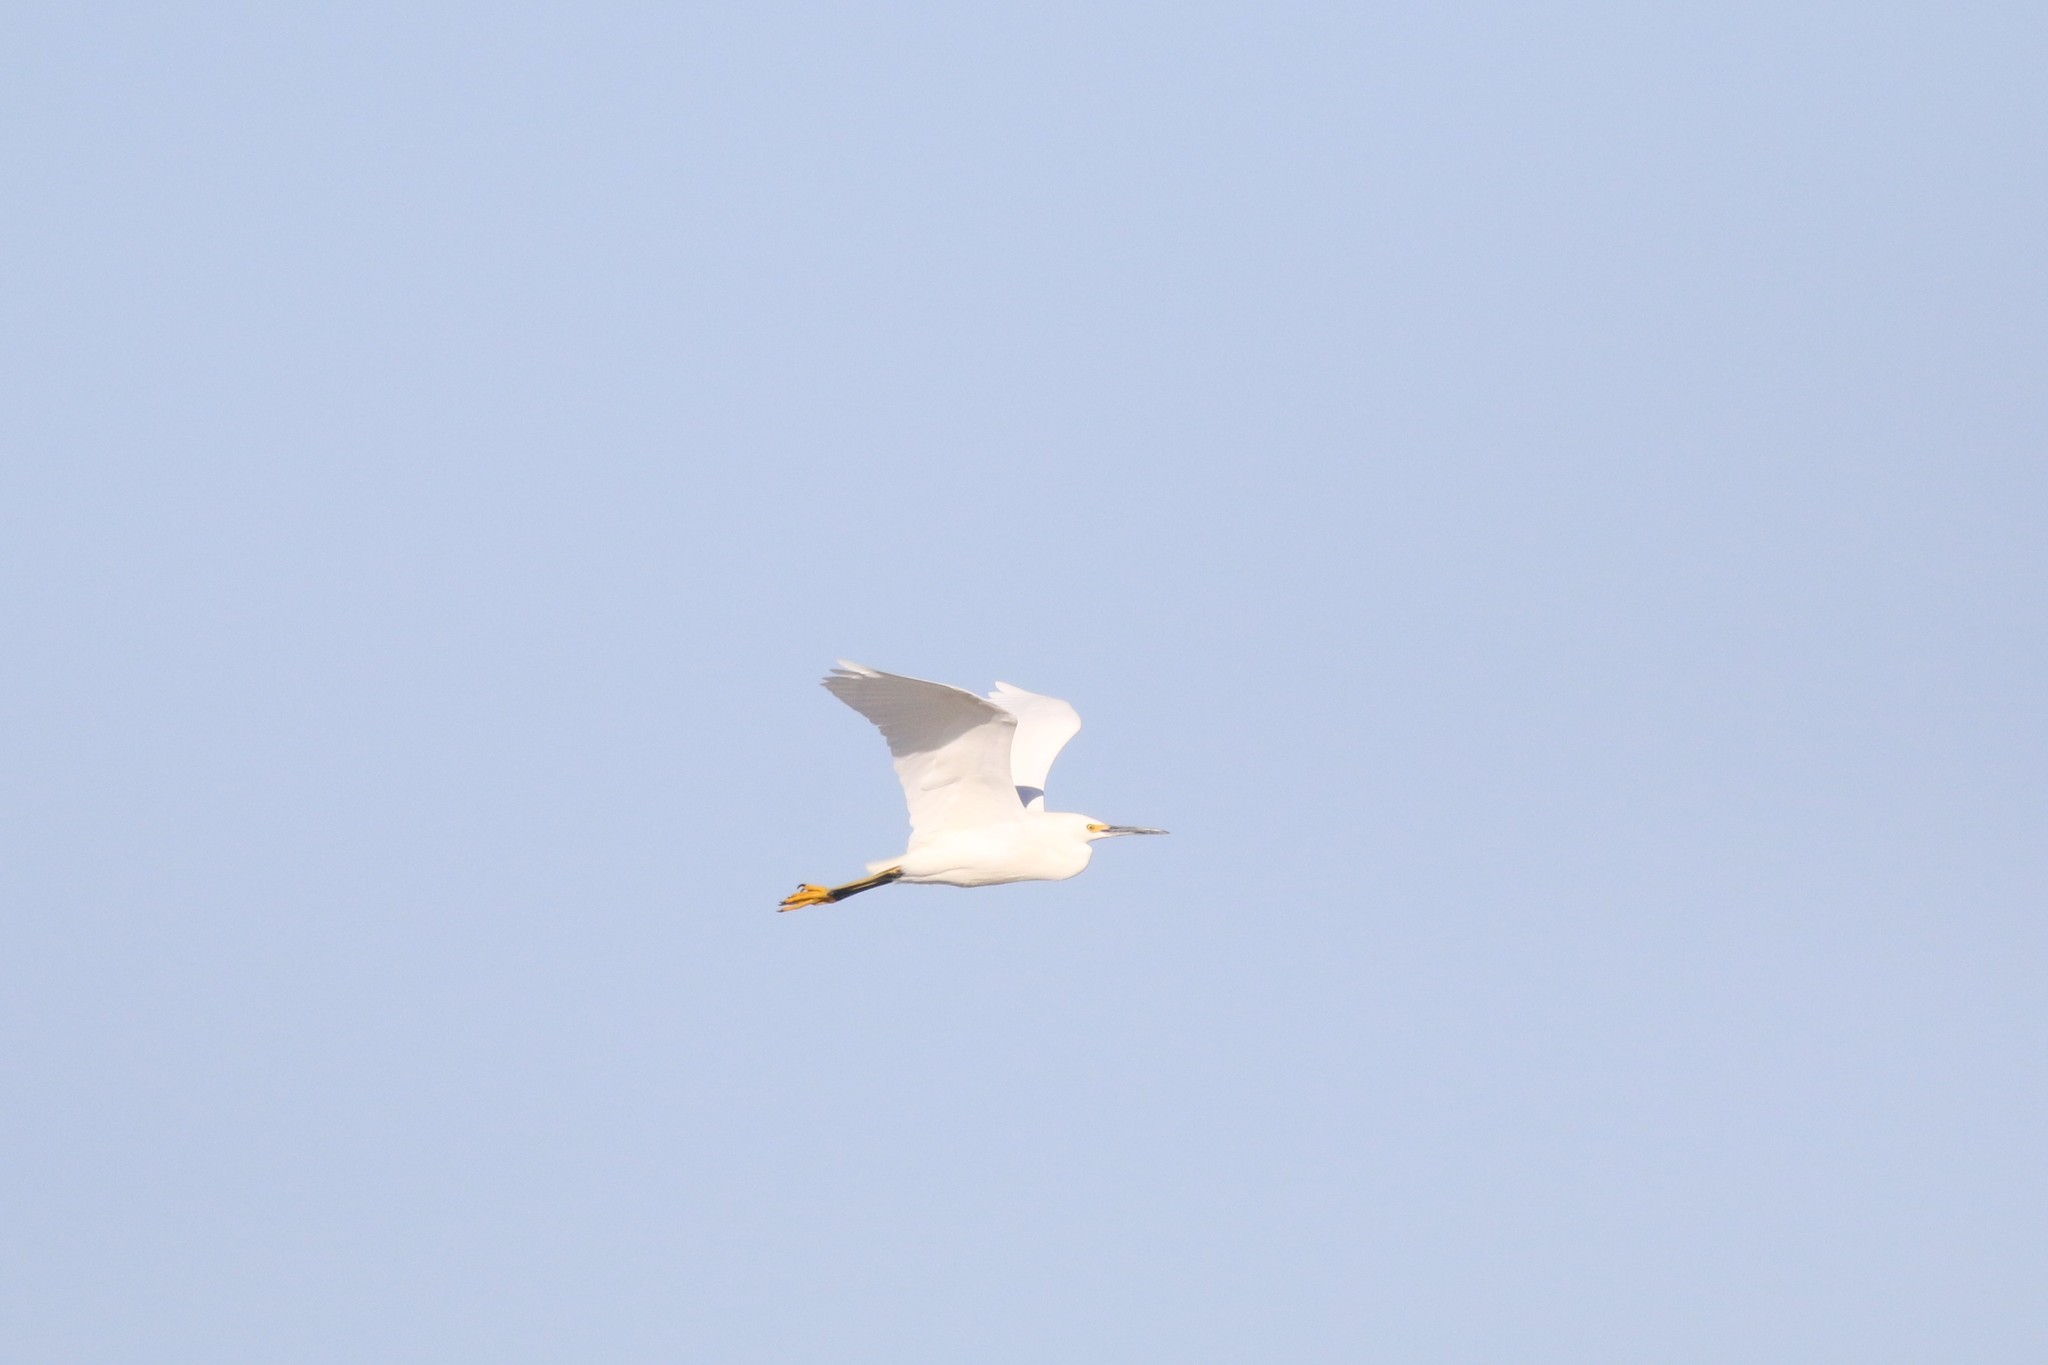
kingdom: Animalia
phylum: Chordata
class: Aves
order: Pelecaniformes
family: Ardeidae
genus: Egretta
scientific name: Egretta thula
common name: Snowy egret
